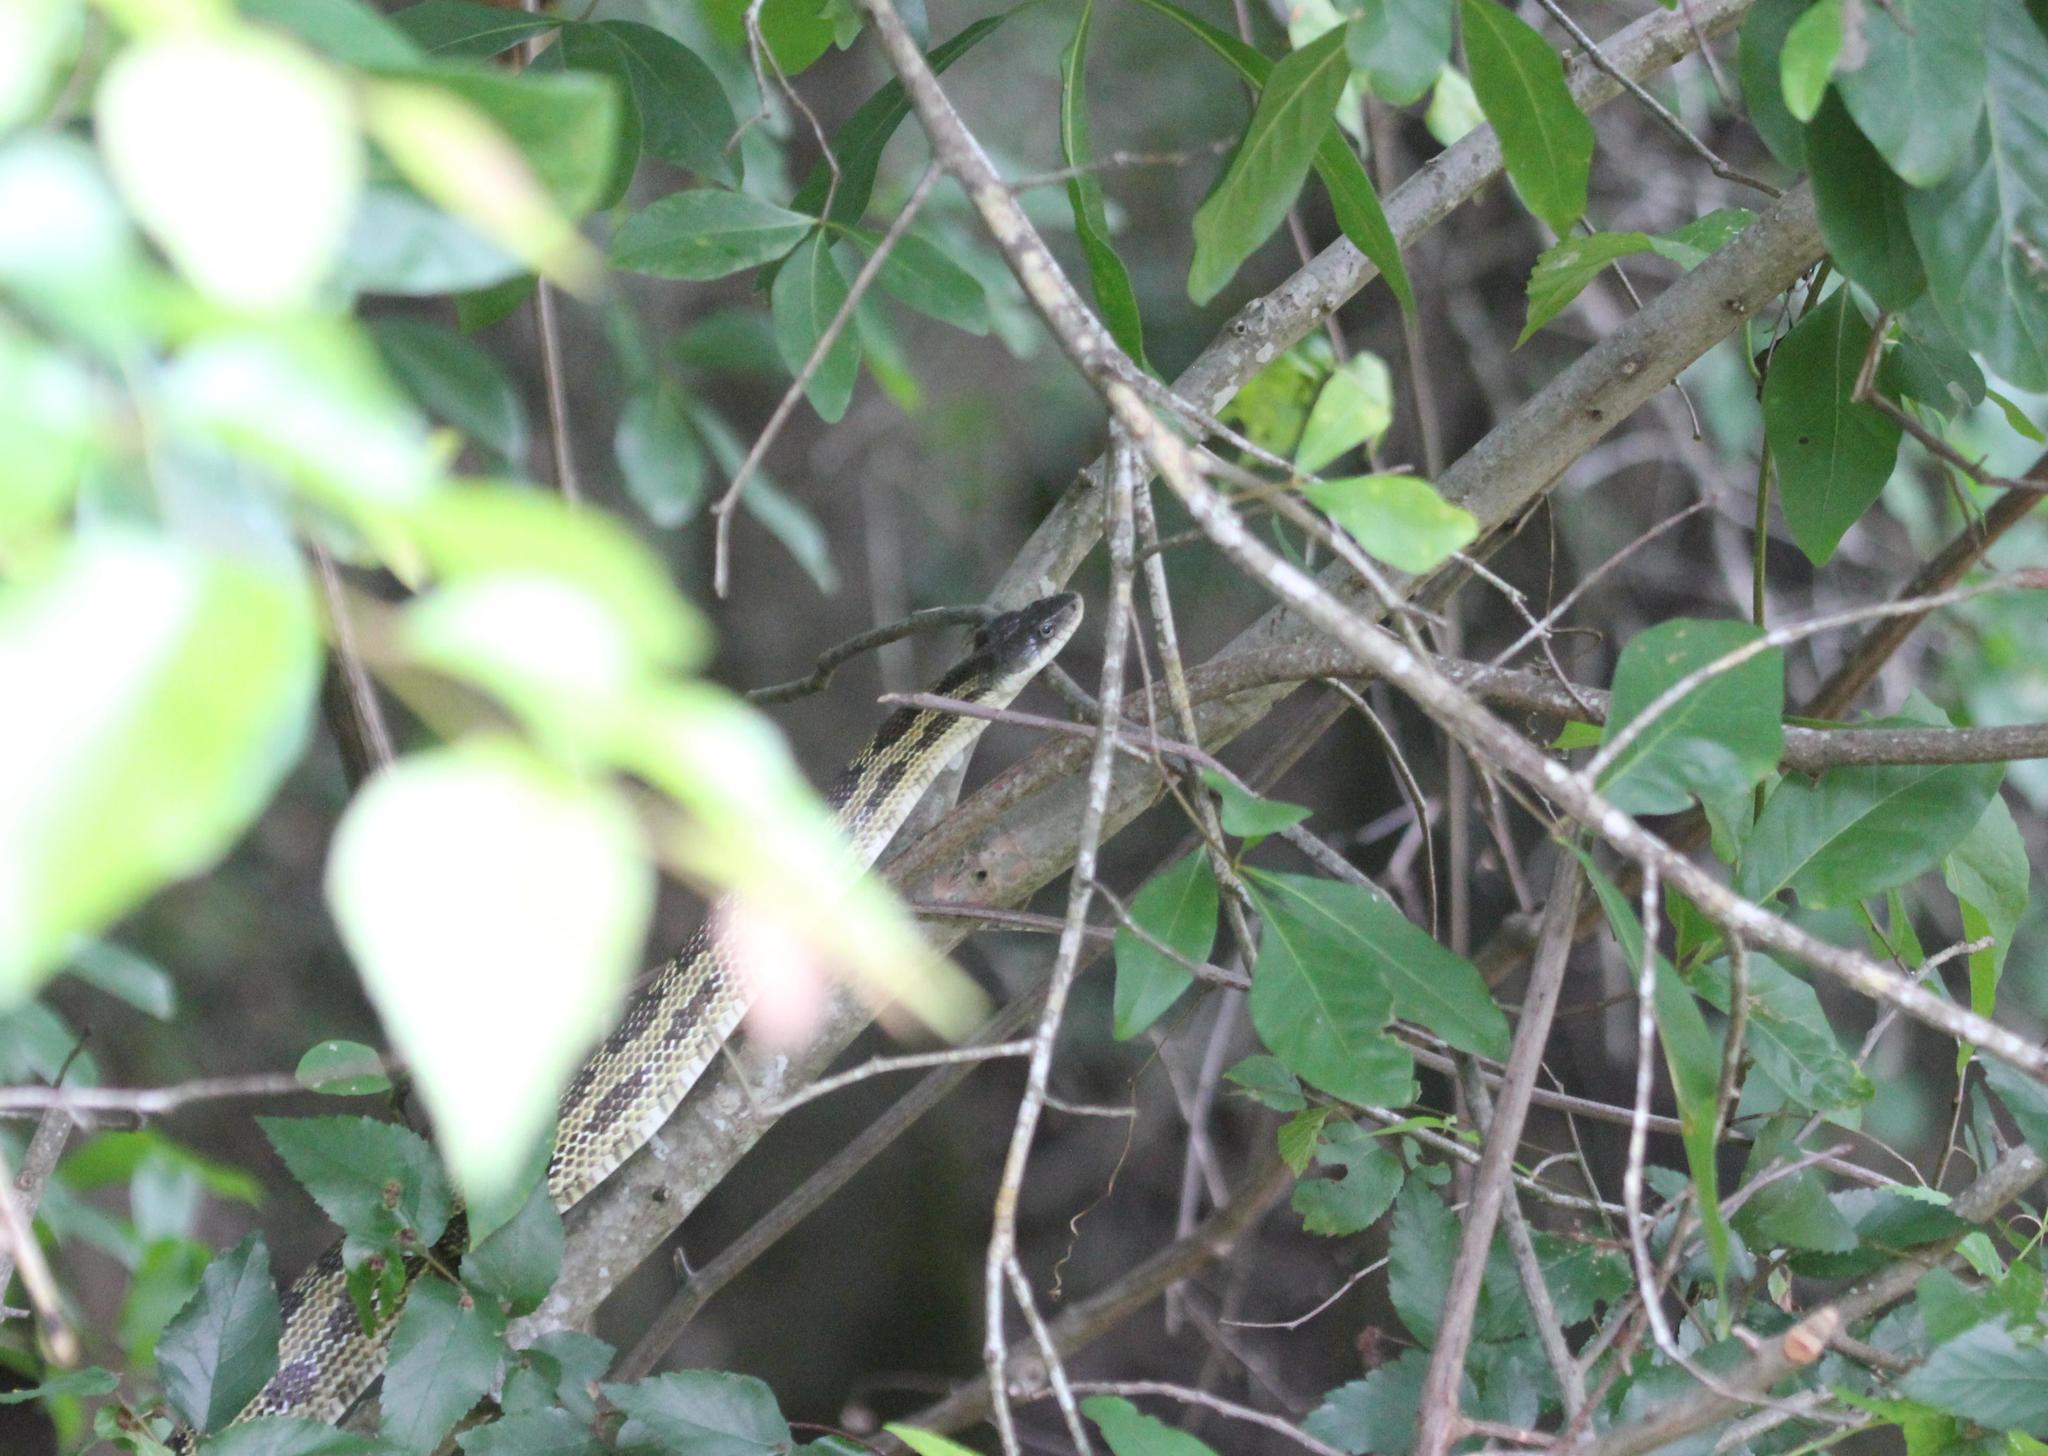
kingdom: Animalia
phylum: Chordata
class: Squamata
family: Colubridae
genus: Pantherophis
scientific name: Pantherophis spiloides
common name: Gray rat snake
